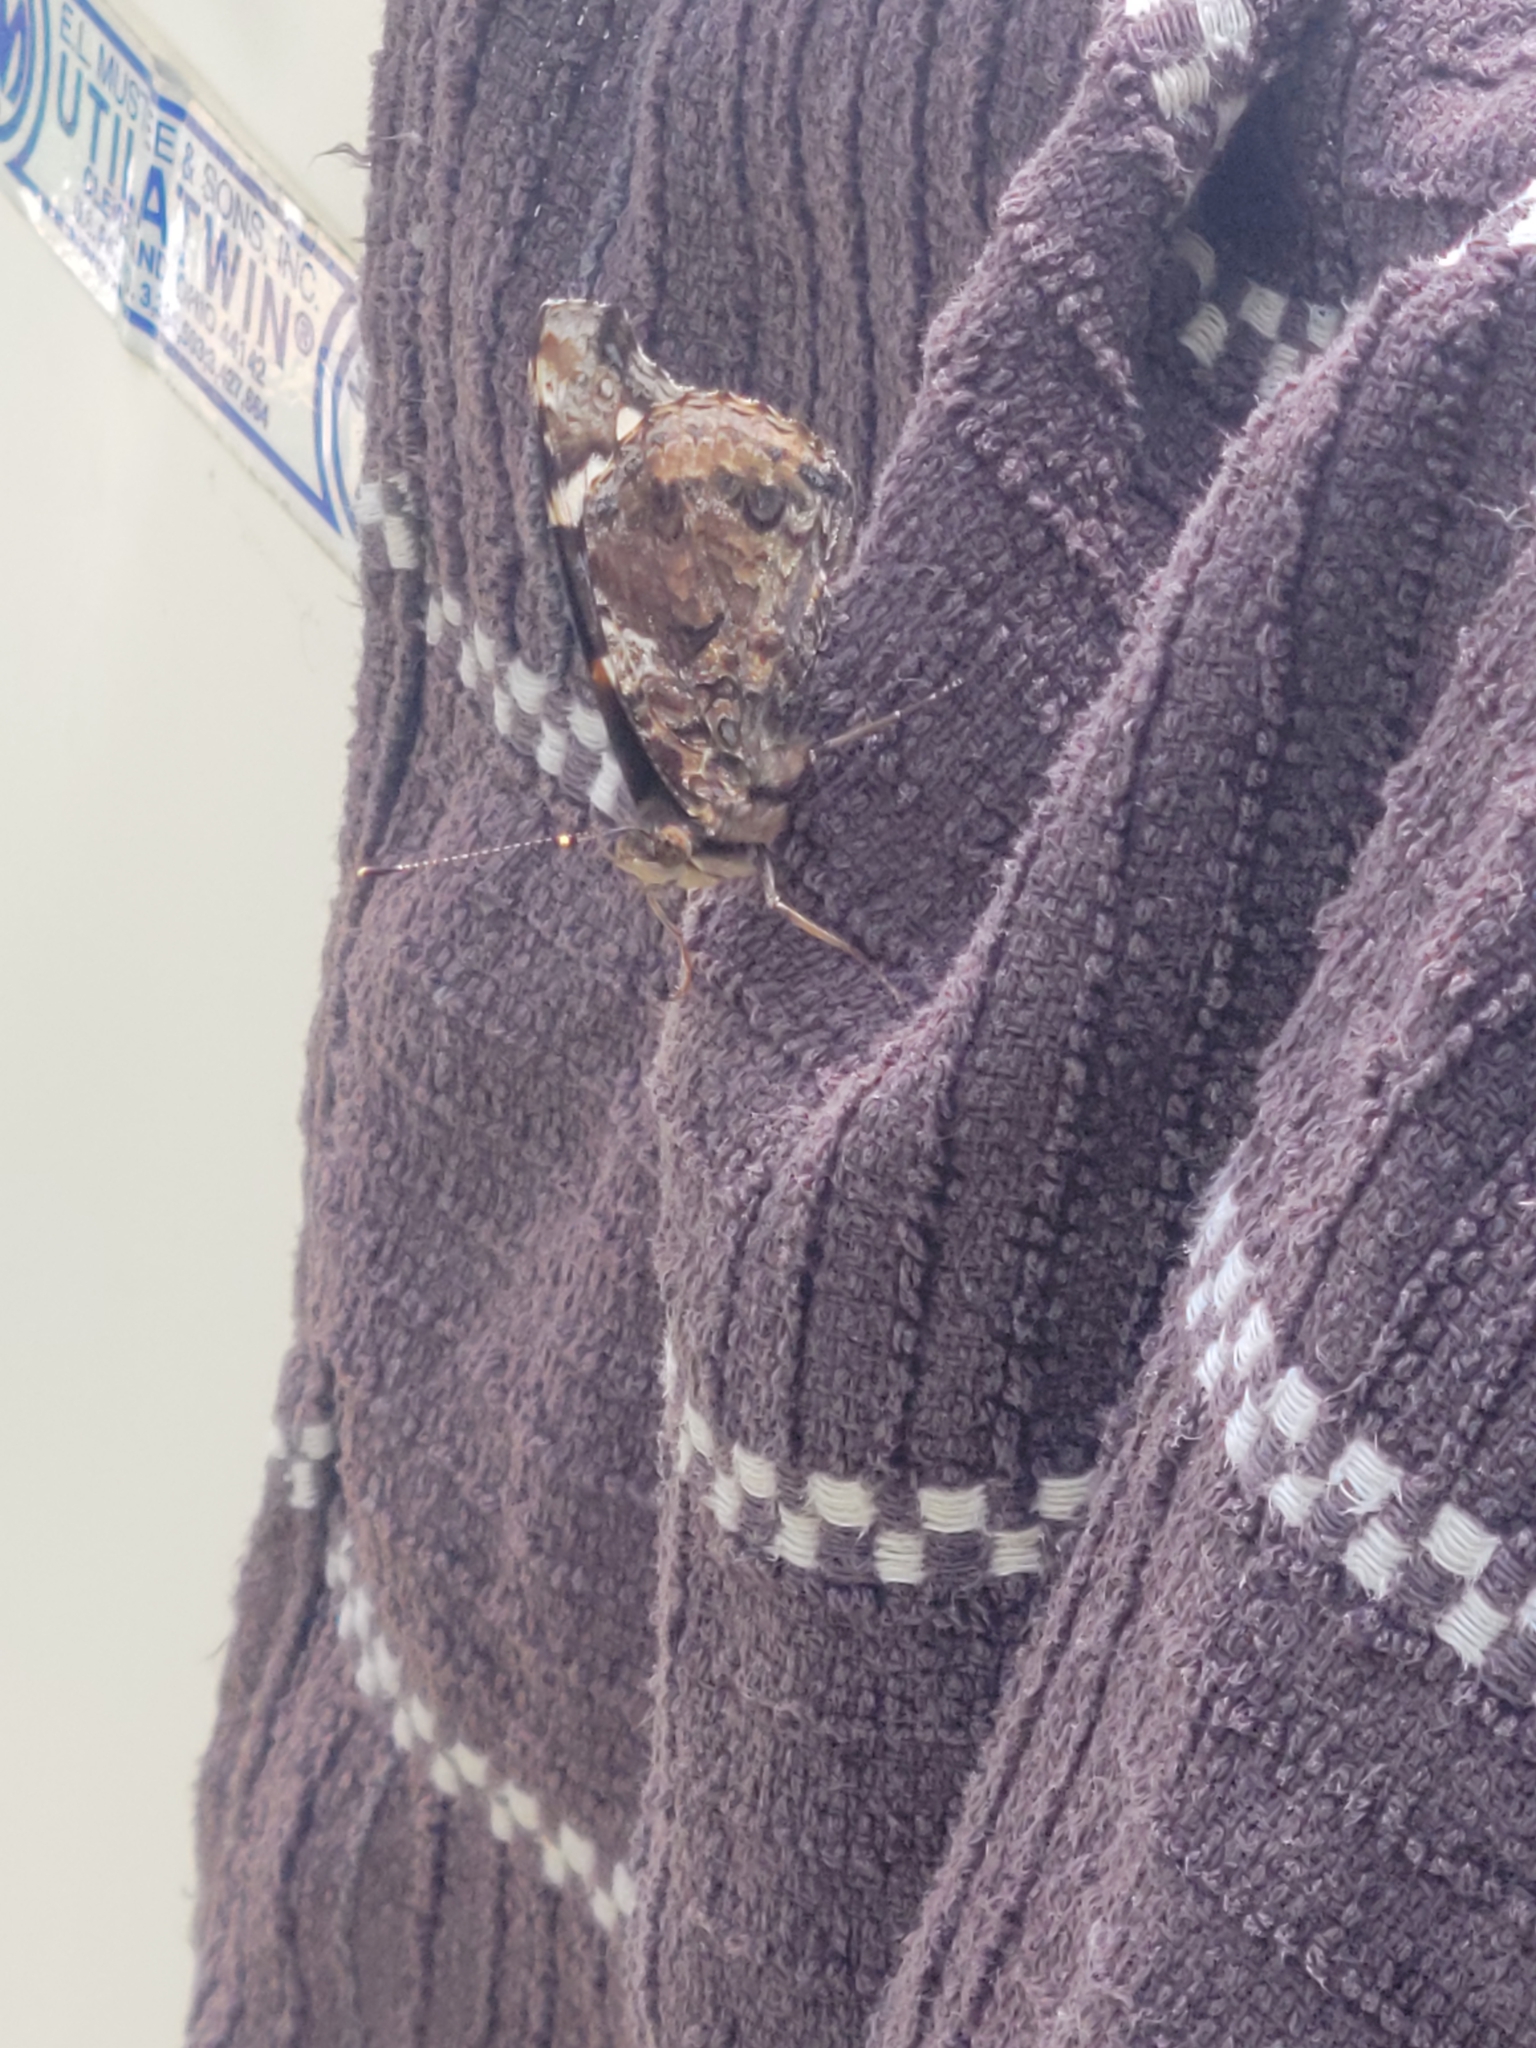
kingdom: Animalia
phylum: Arthropoda
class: Insecta
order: Lepidoptera
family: Nymphalidae
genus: Vanessa
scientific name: Vanessa atalanta
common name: Red admiral
